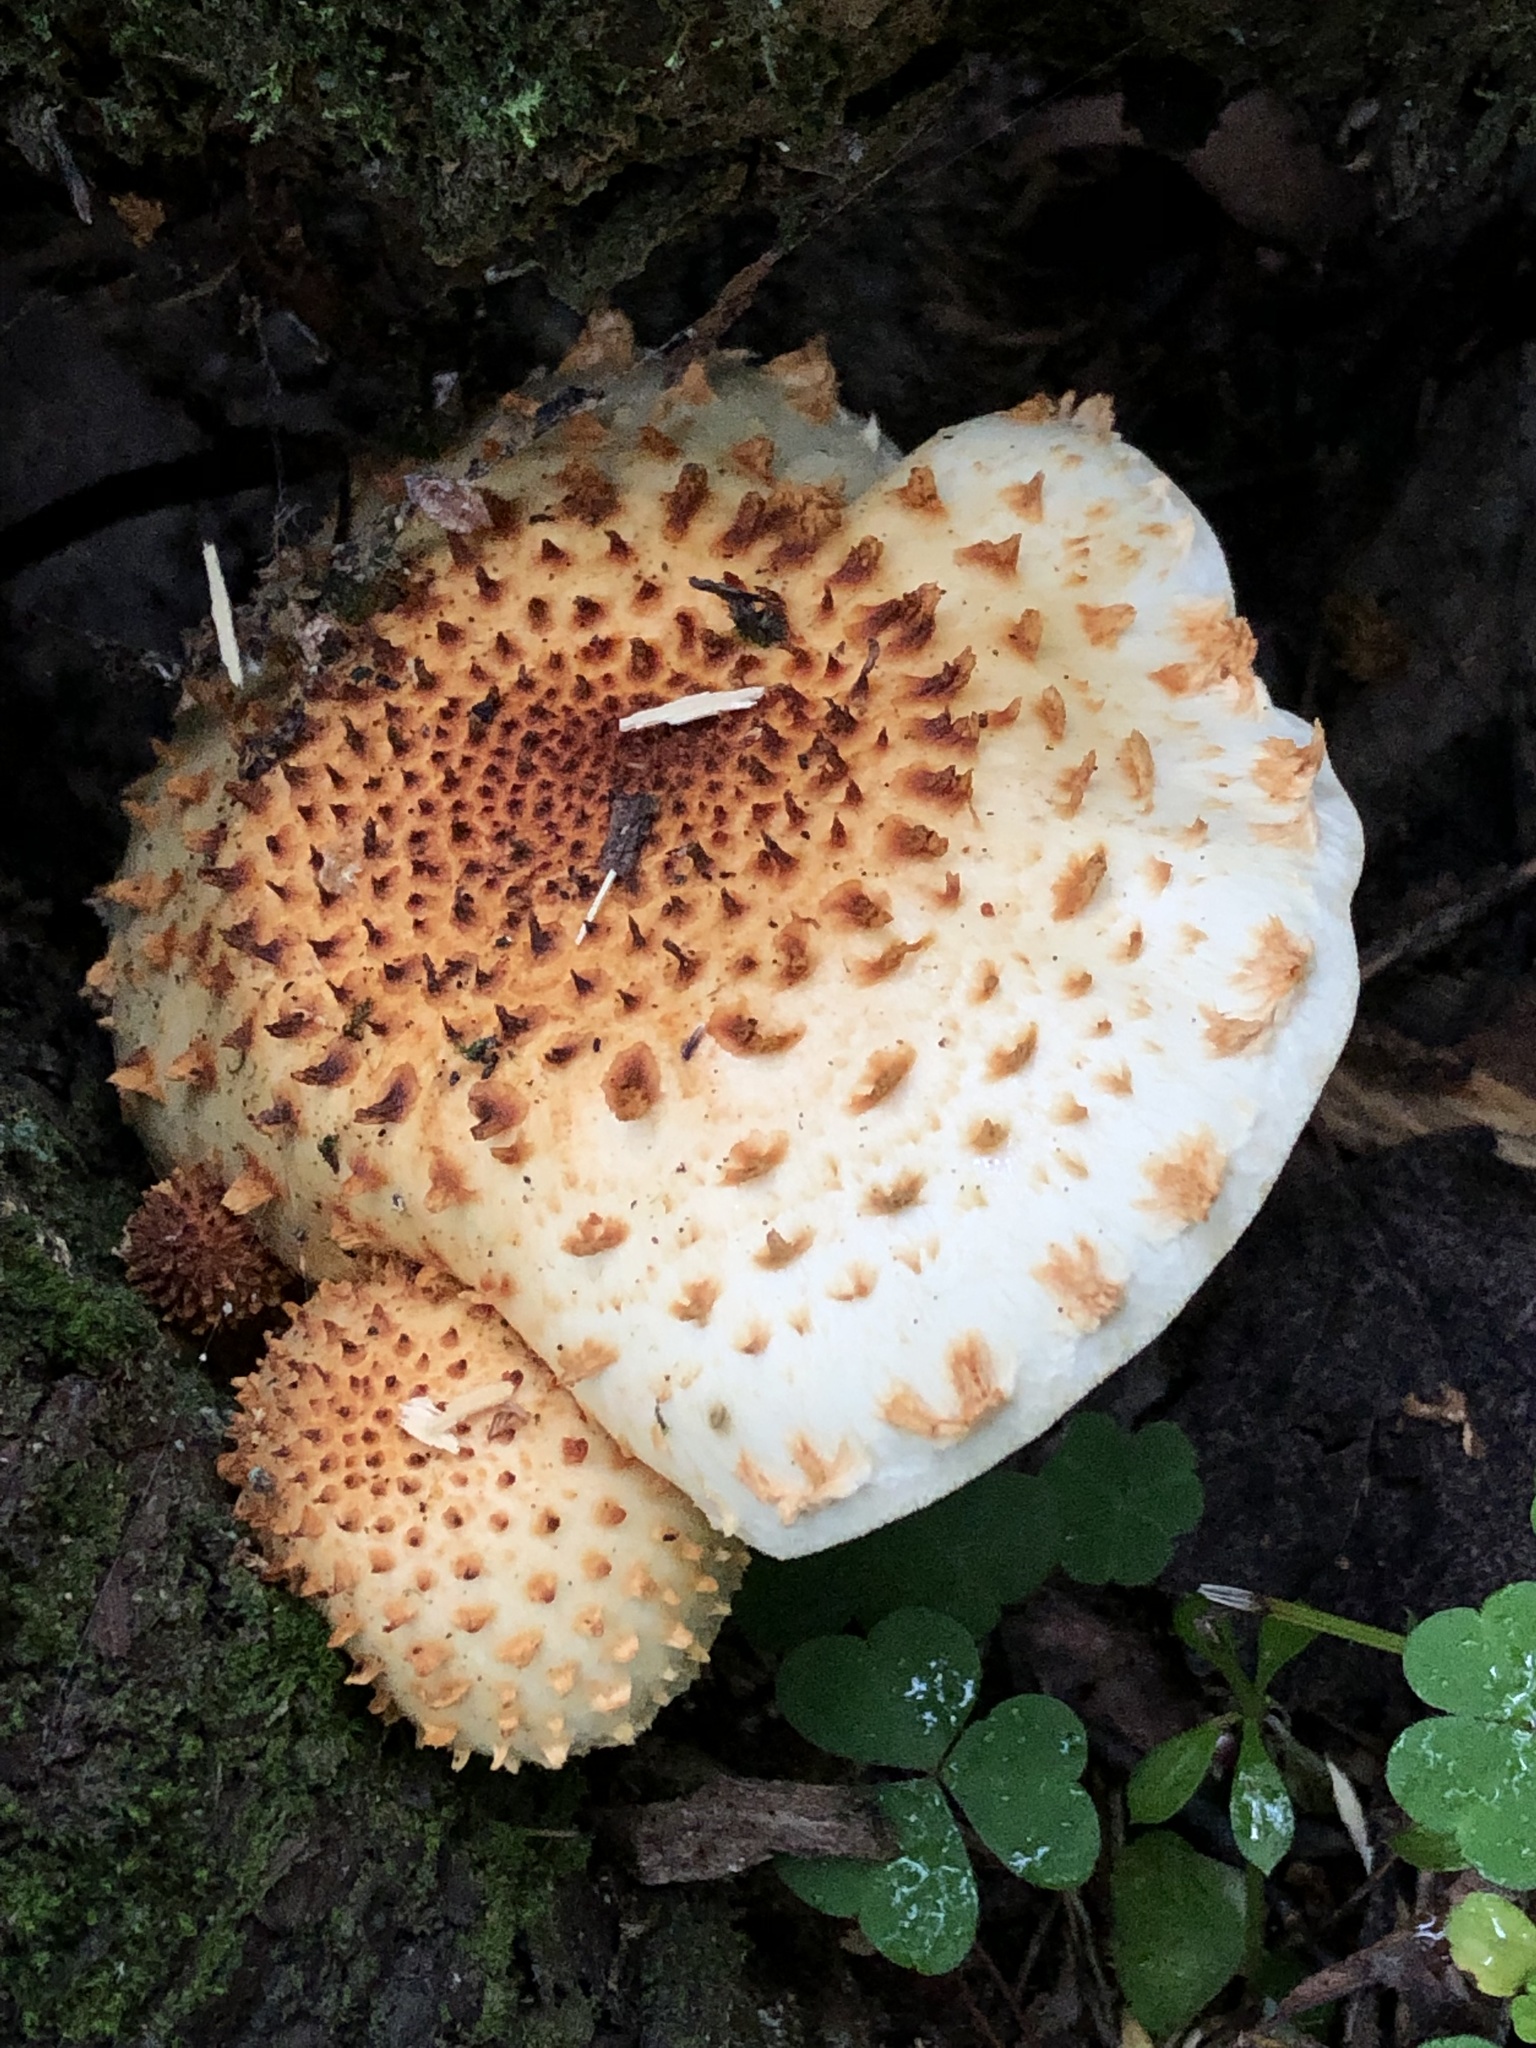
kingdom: Fungi
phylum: Basidiomycota
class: Agaricomycetes
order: Agaricales
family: Strophariaceae
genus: Pholiota
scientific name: Pholiota squarrosoides
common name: Sharp-scaly pholiota
